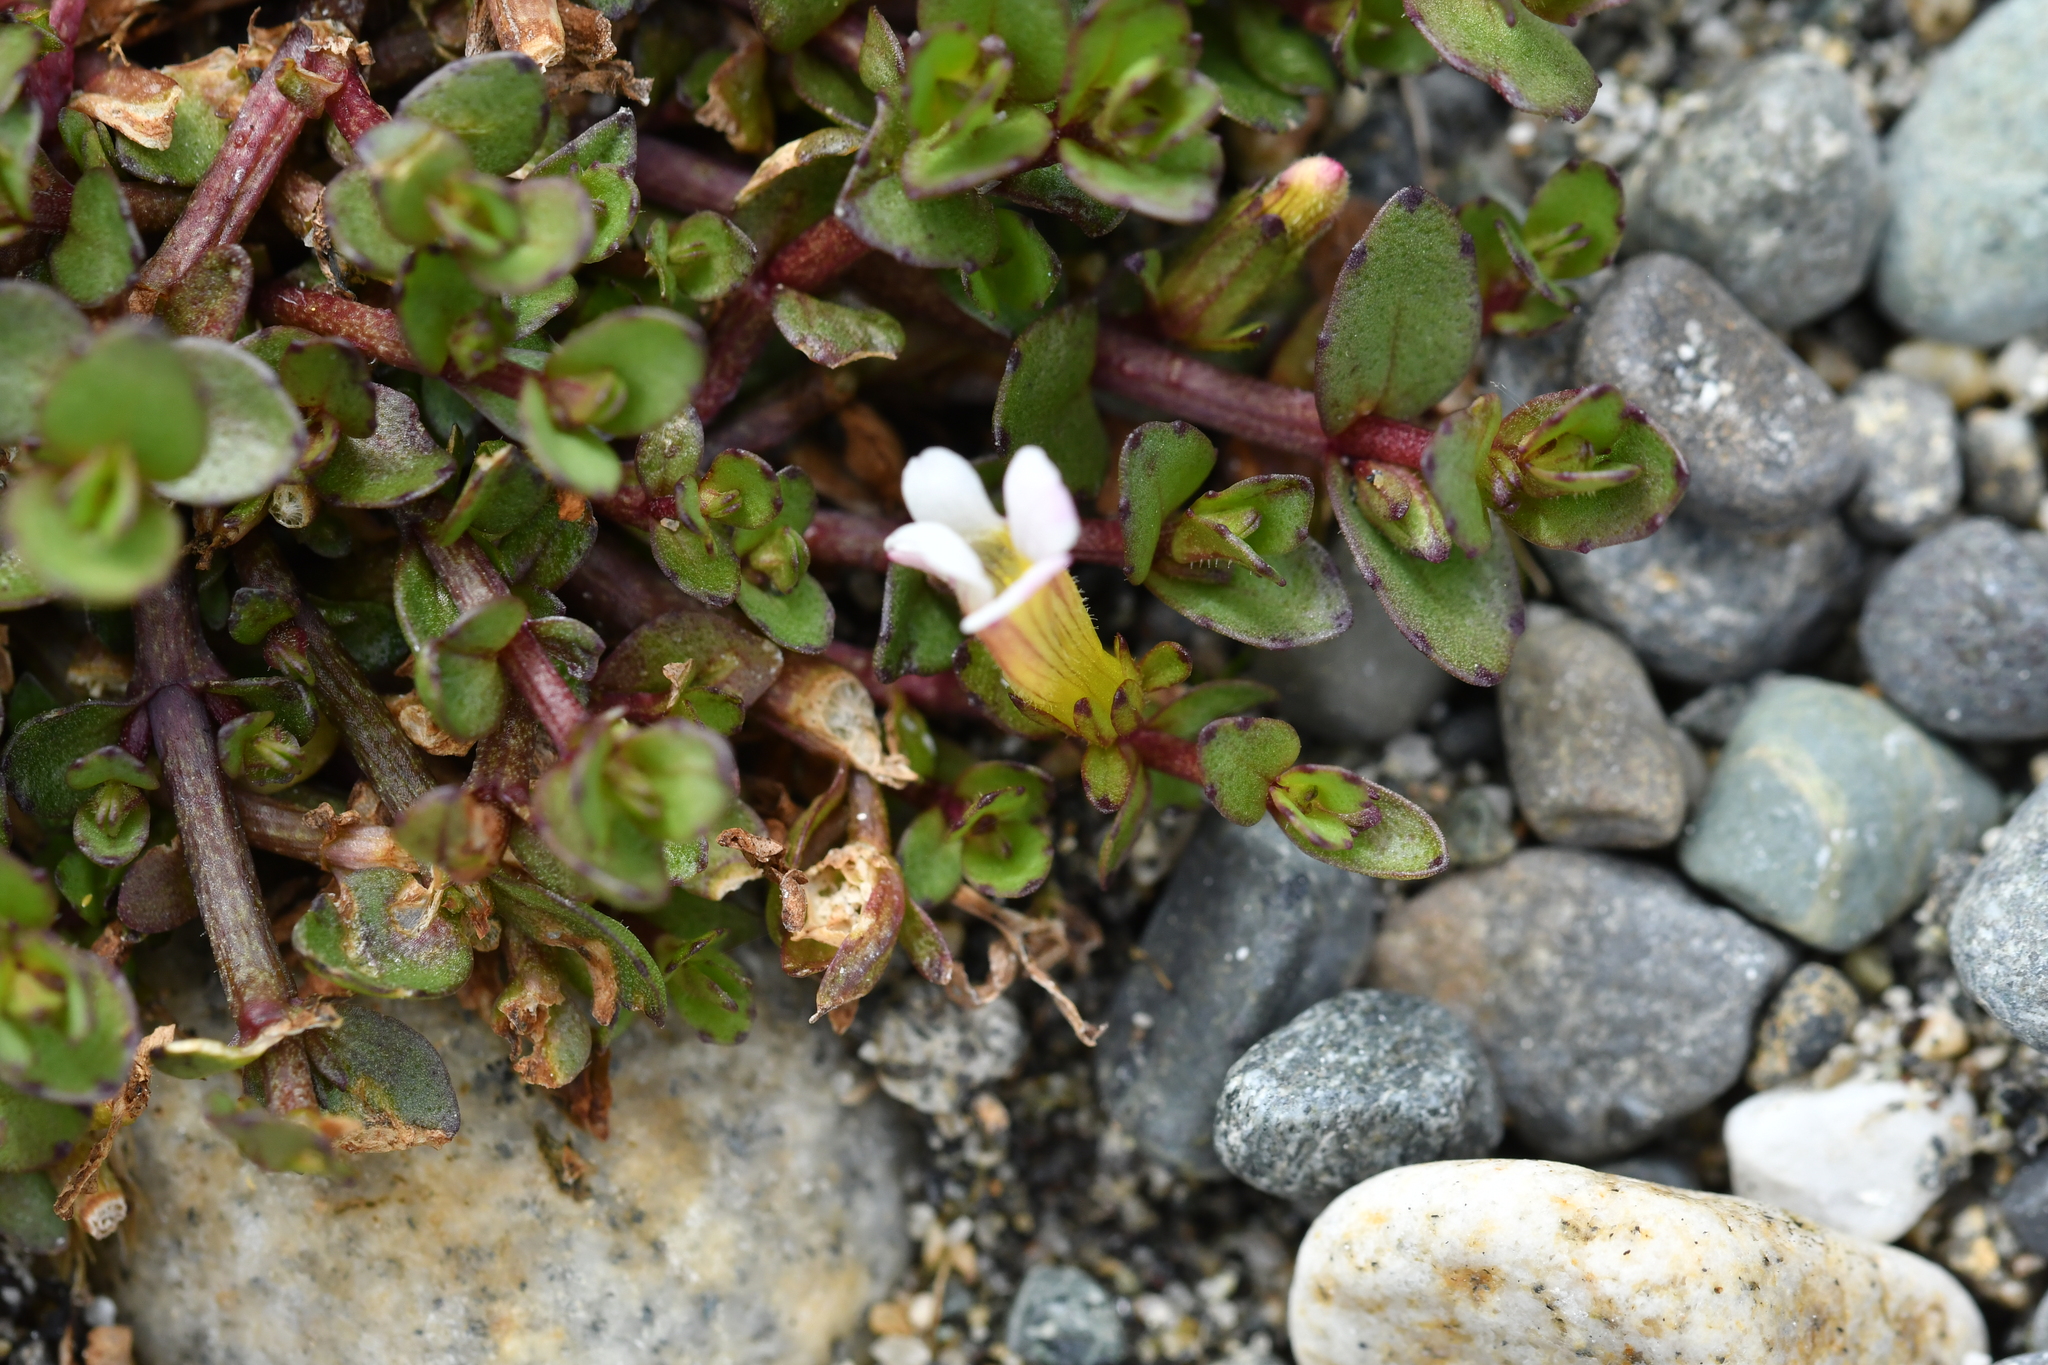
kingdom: Plantae
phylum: Tracheophyta
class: Magnoliopsida
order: Lamiales
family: Plantaginaceae
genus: Gratiola
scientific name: Gratiola sexdentata
